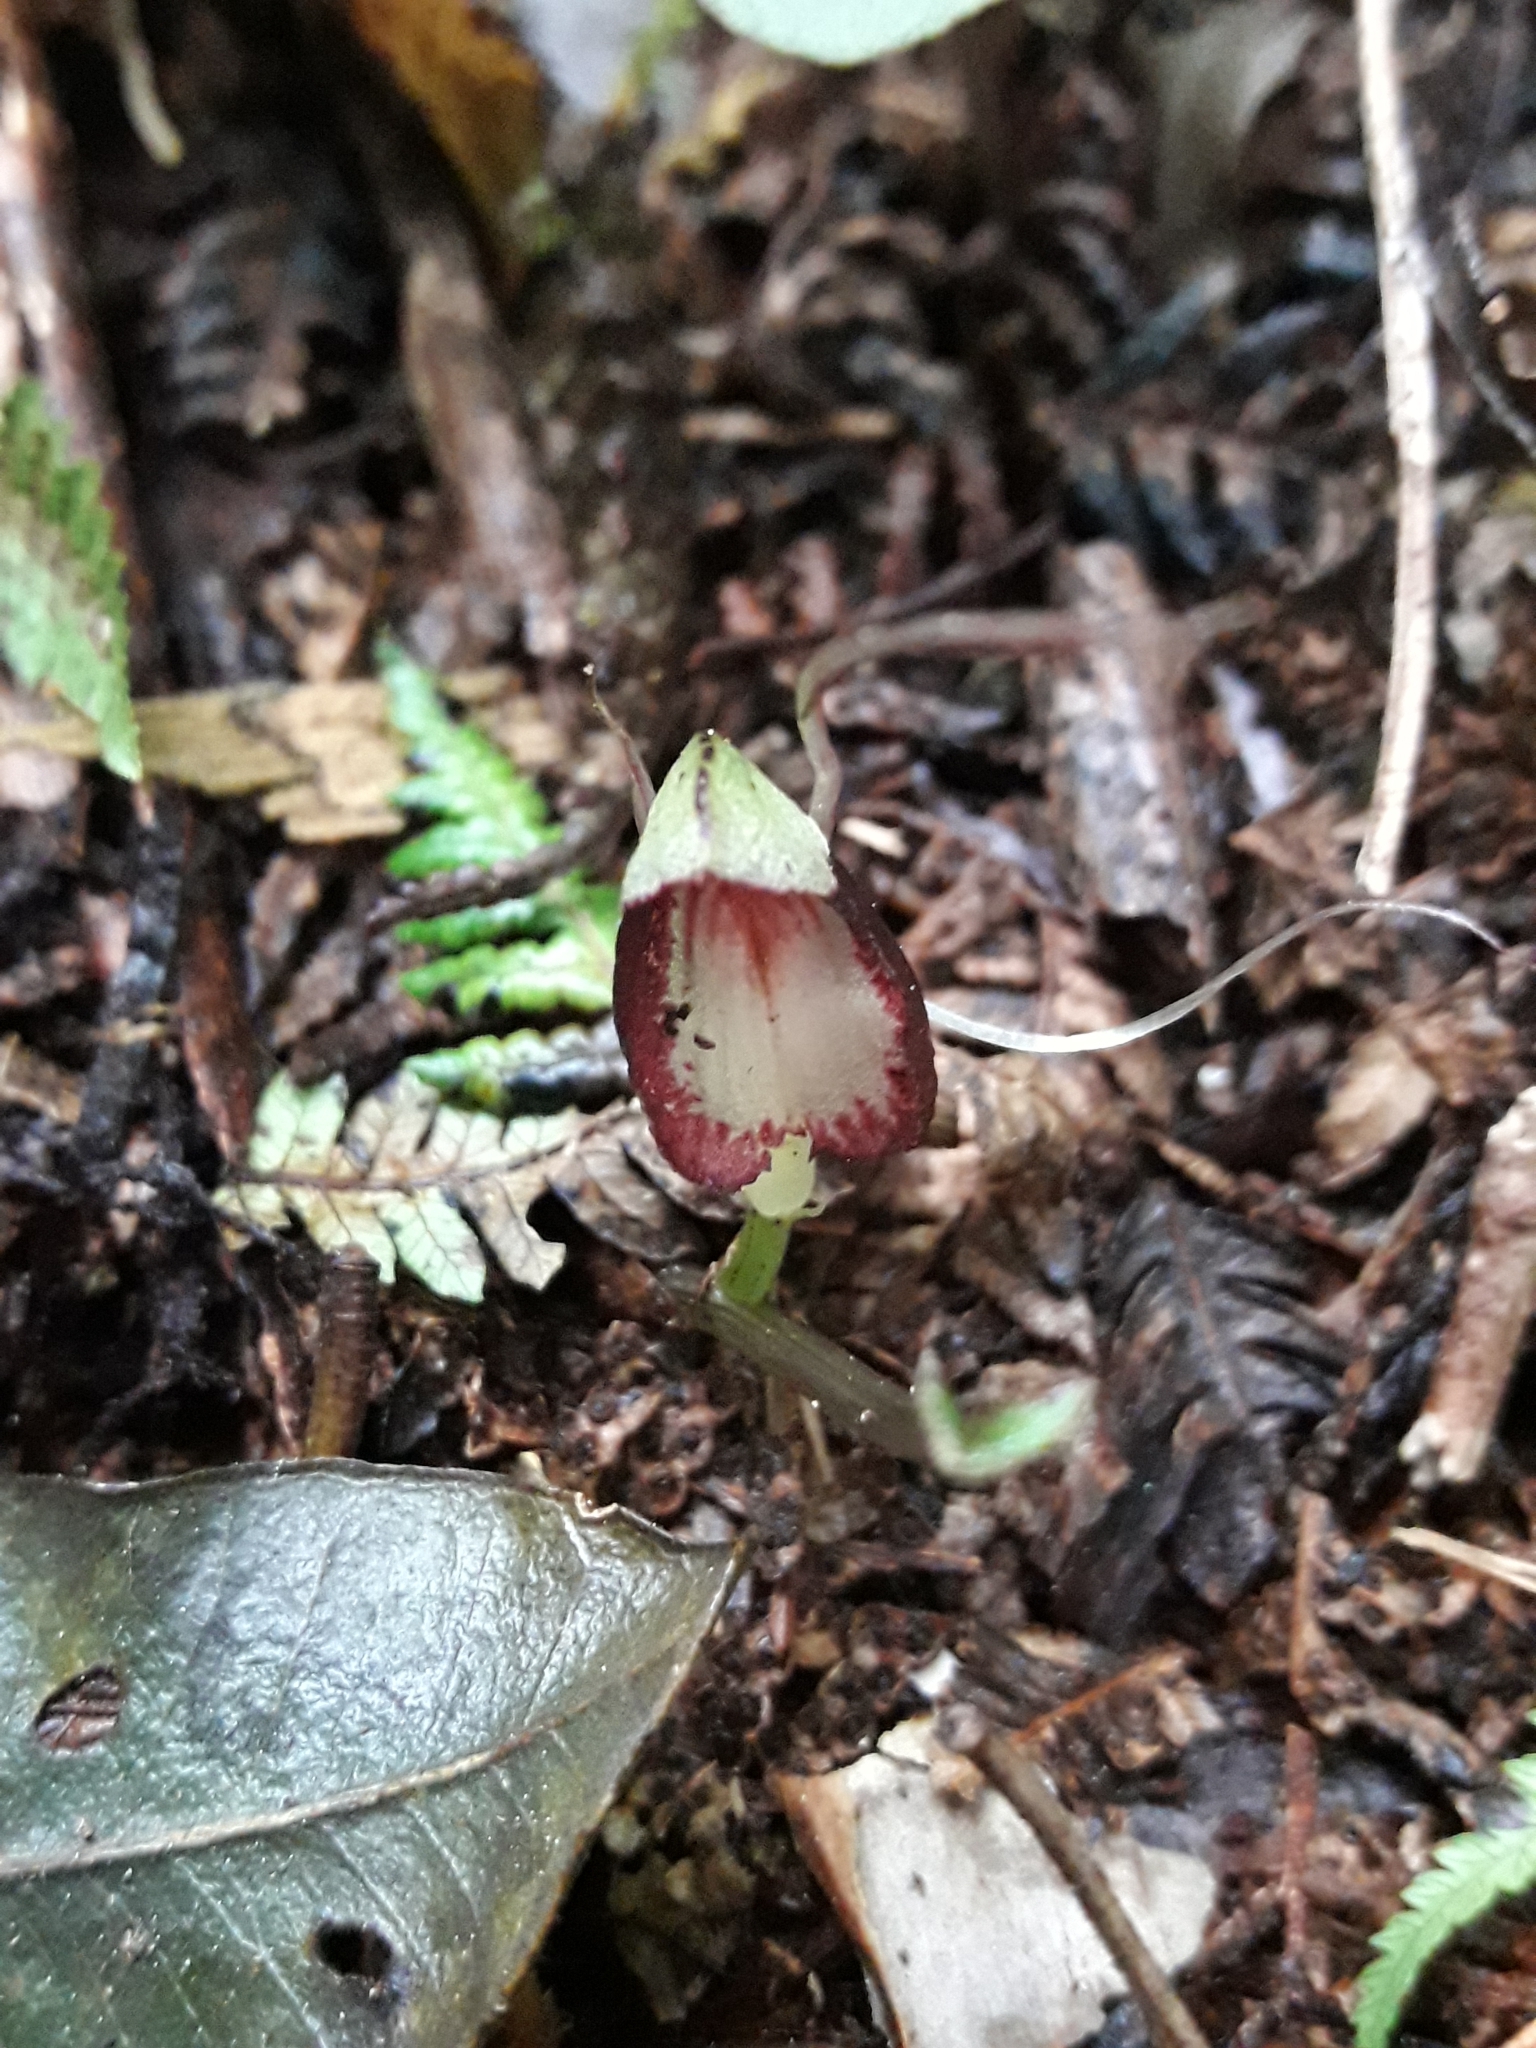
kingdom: Plantae
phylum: Tracheophyta
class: Liliopsida
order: Asparagales
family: Orchidaceae
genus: Corybas
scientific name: Corybas sanctigeorgianus
